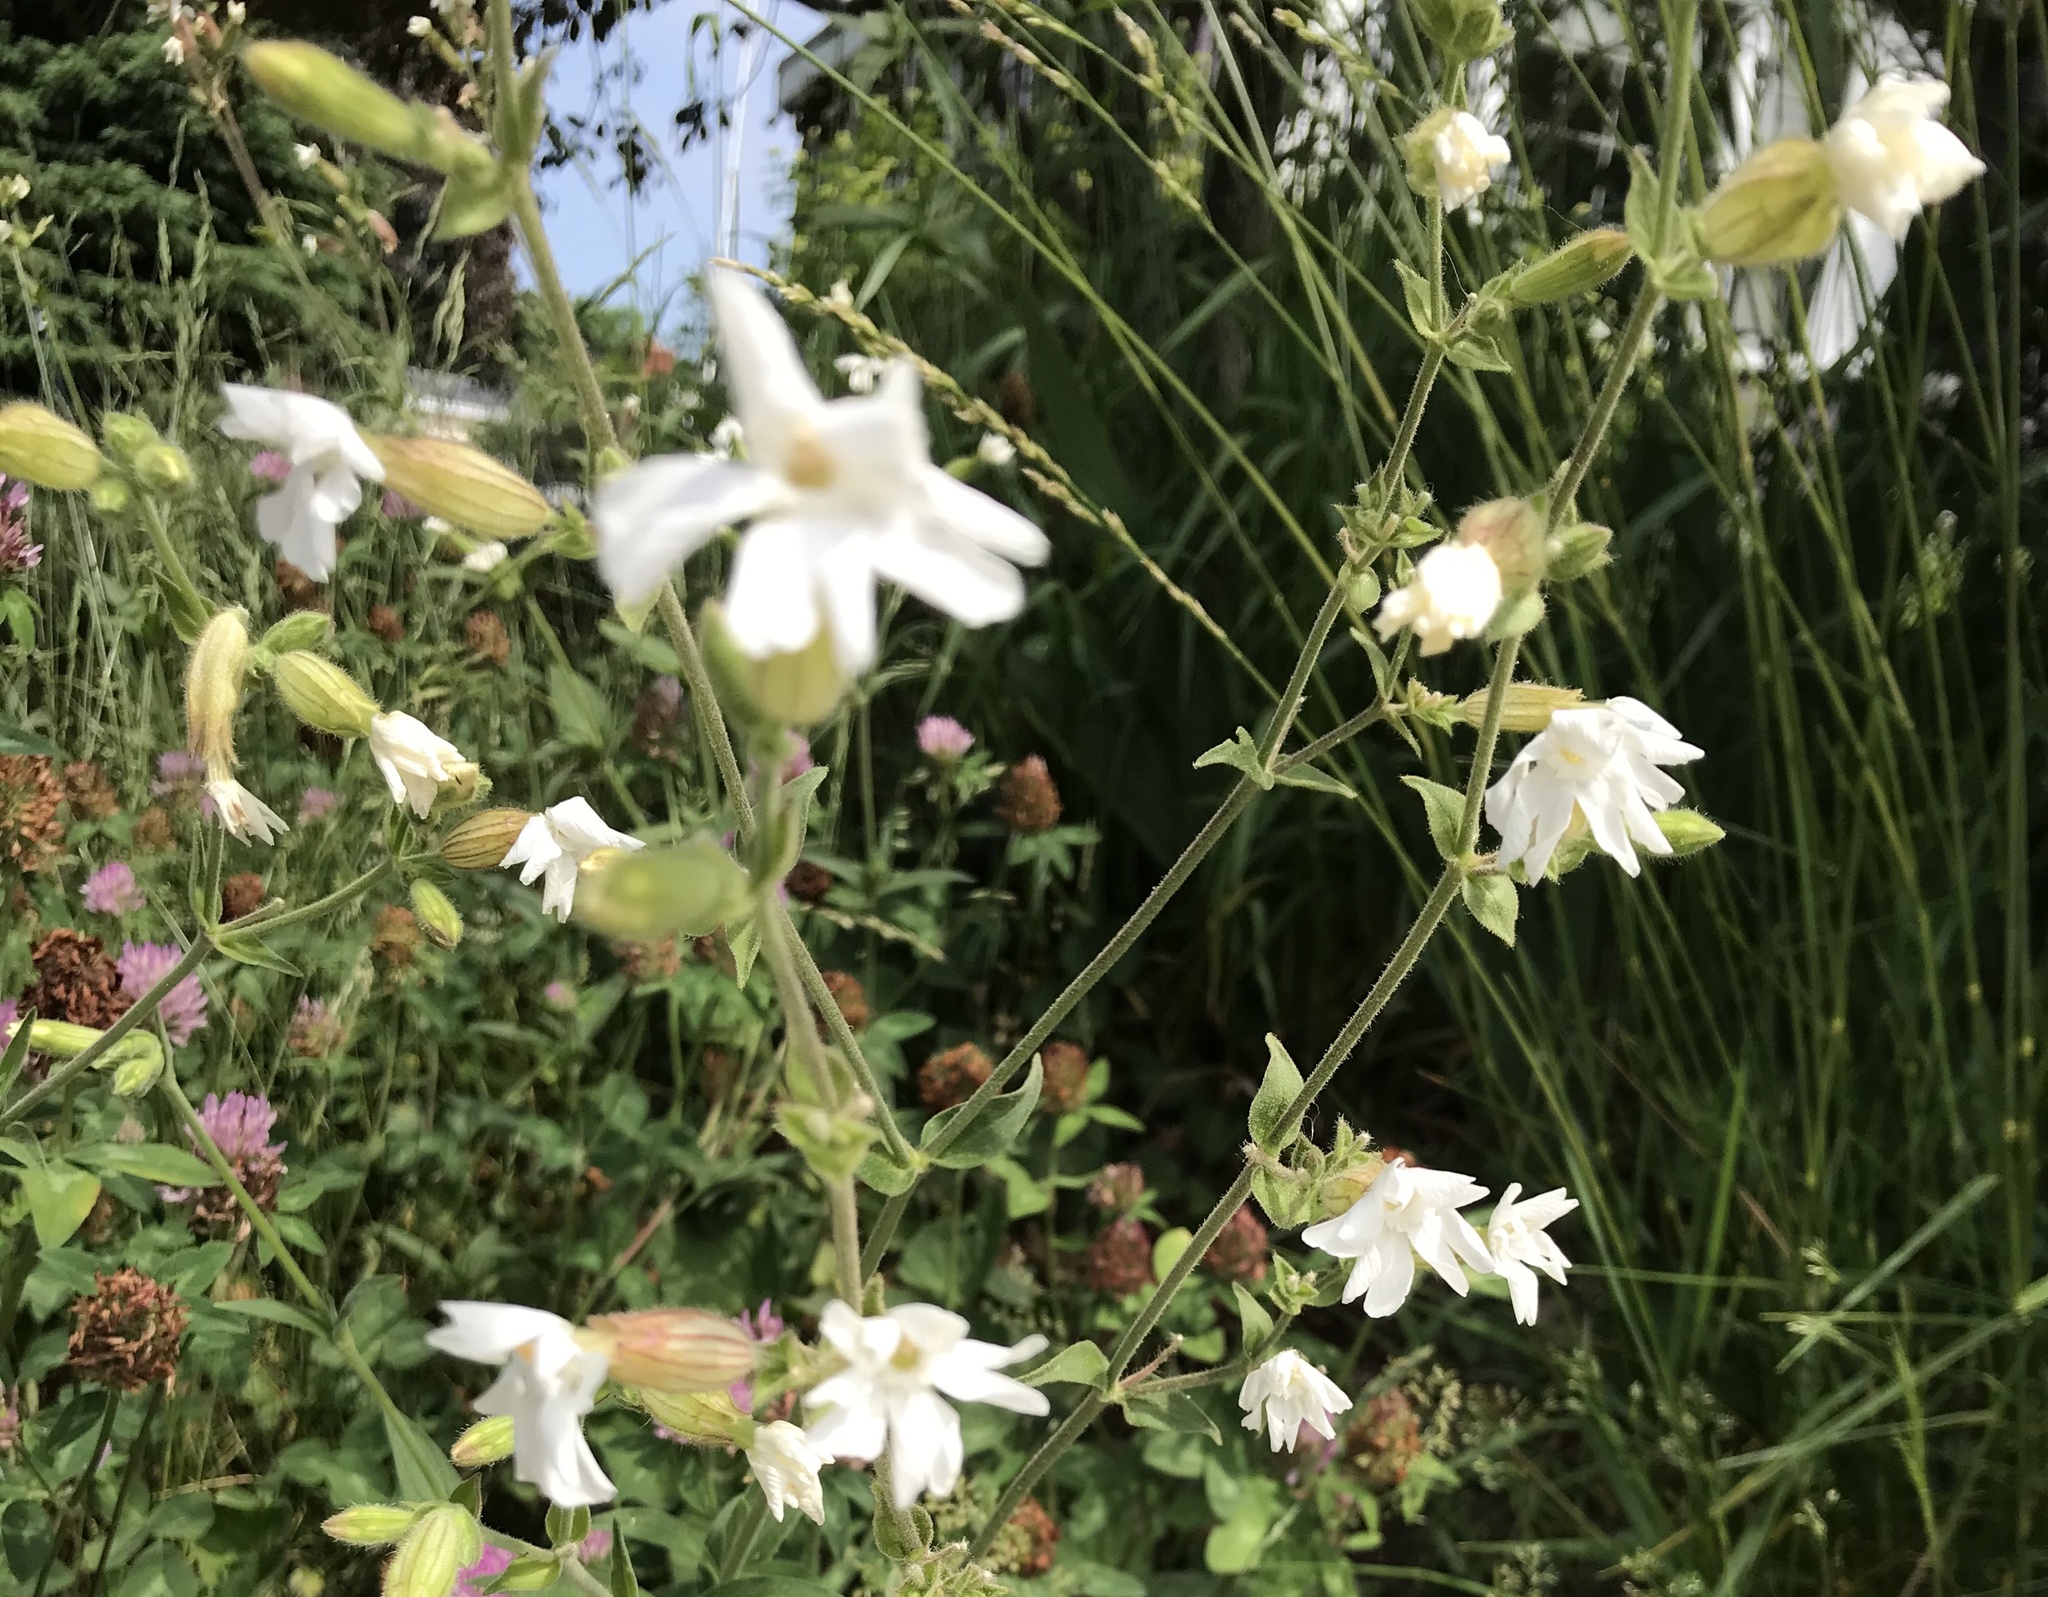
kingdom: Plantae
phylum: Tracheophyta
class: Magnoliopsida
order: Caryophyllales
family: Caryophyllaceae
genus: Silene
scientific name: Silene latifolia
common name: White campion
